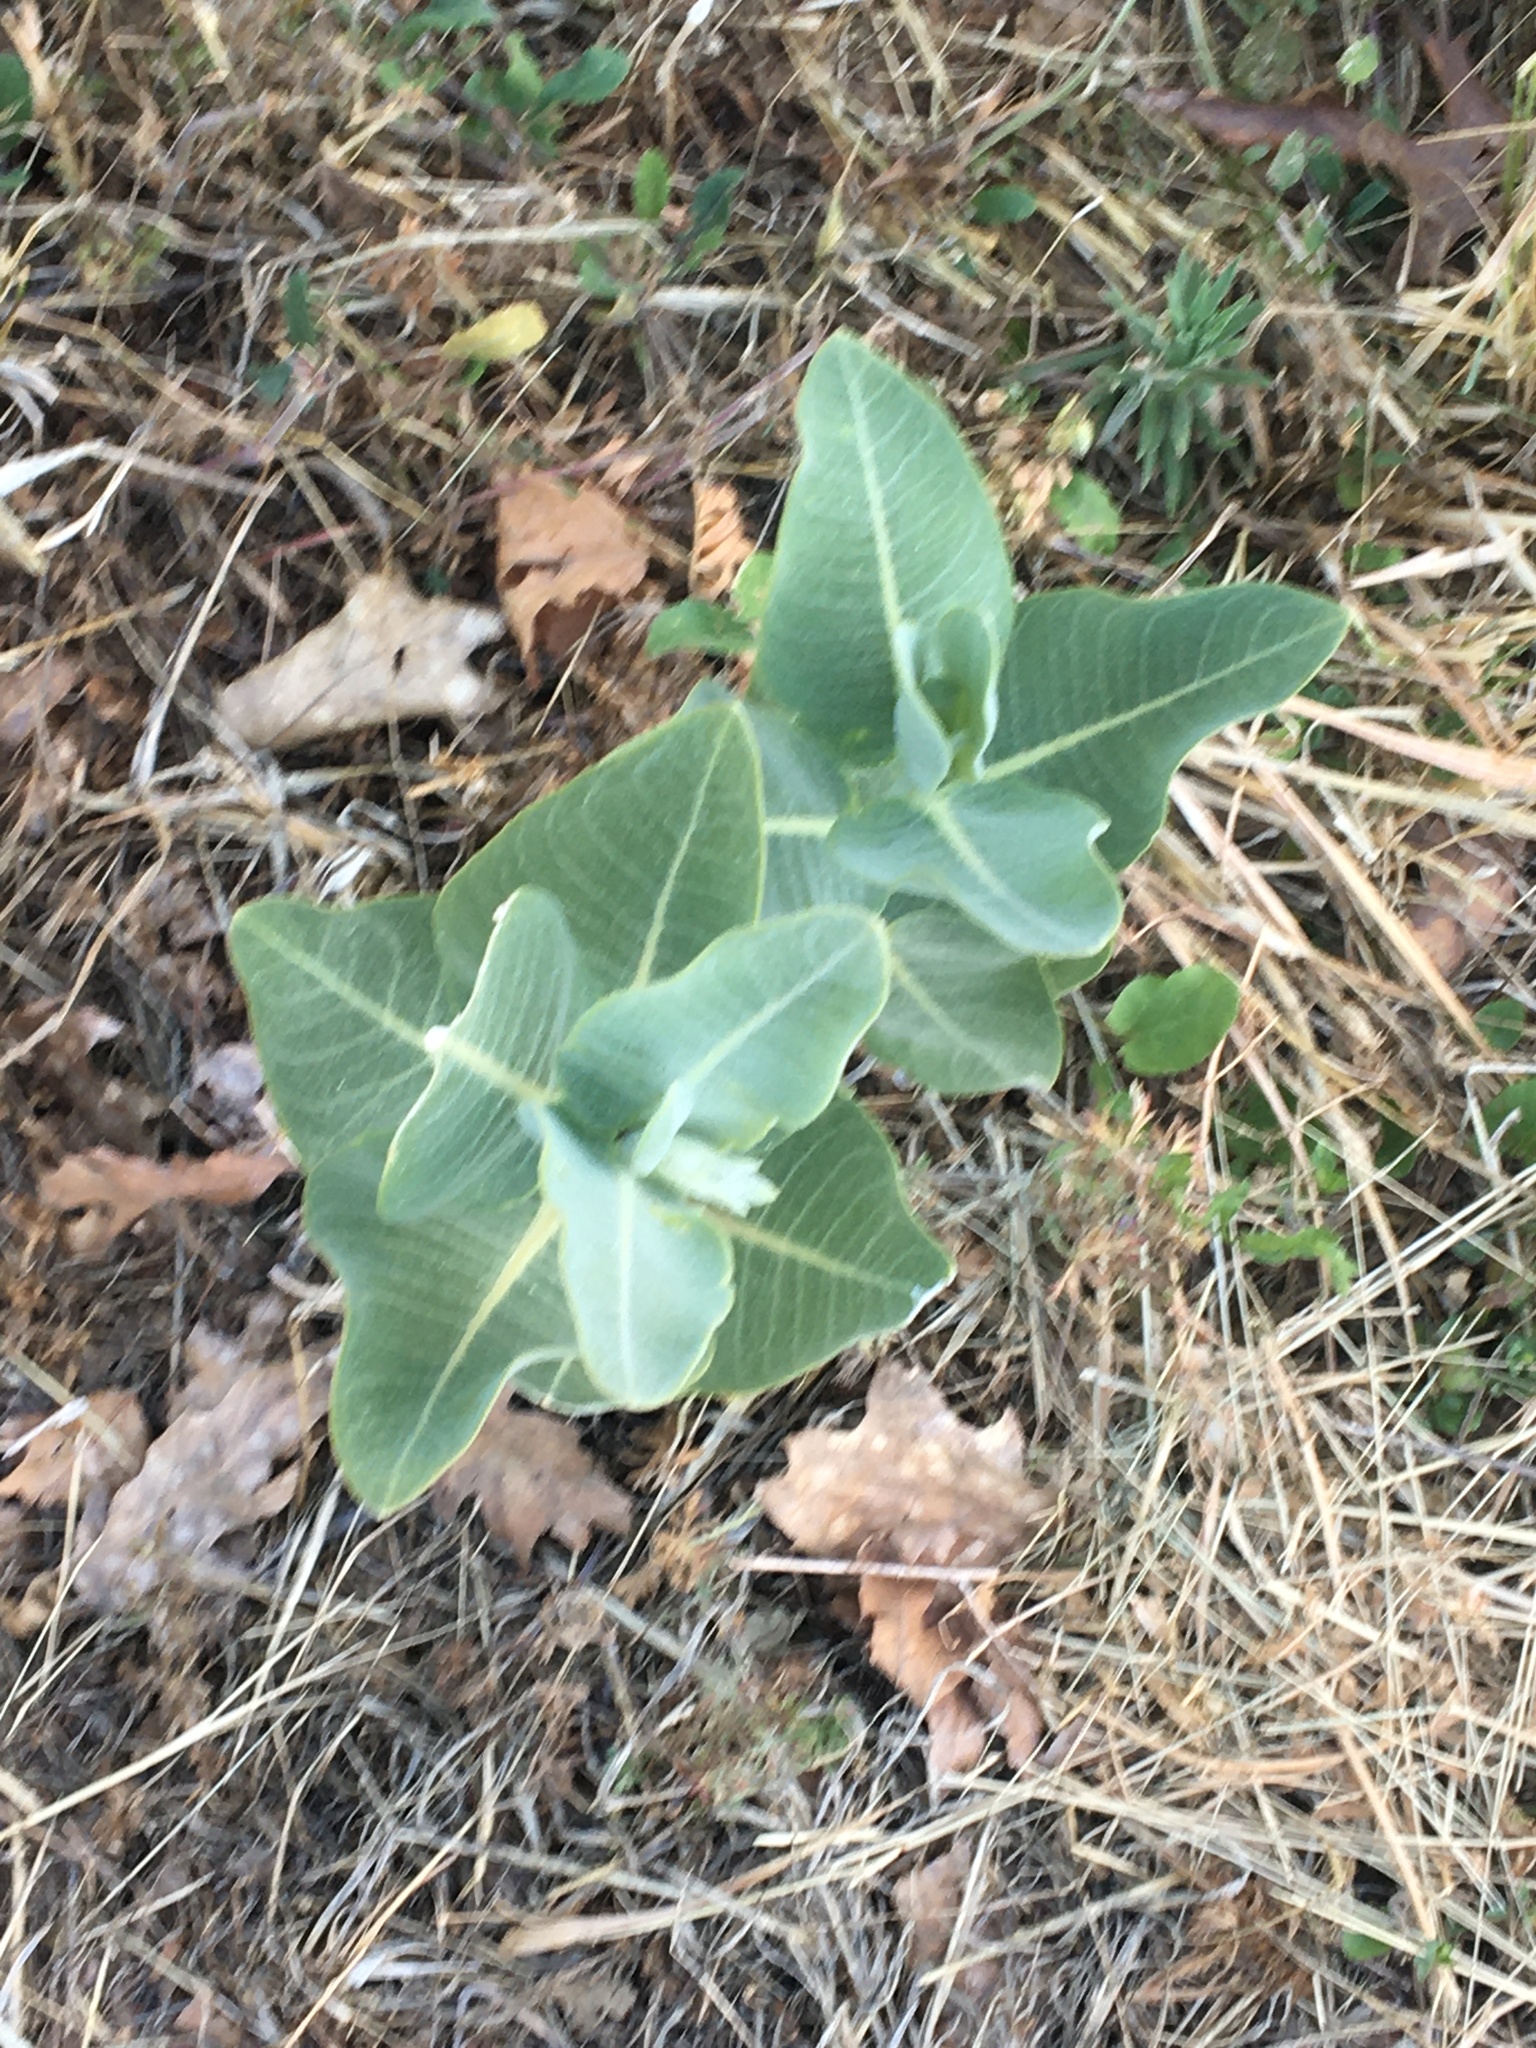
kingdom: Plantae
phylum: Tracheophyta
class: Magnoliopsida
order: Gentianales
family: Apocynaceae
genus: Asclepias
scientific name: Asclepias speciosa
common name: Showy milkweed
